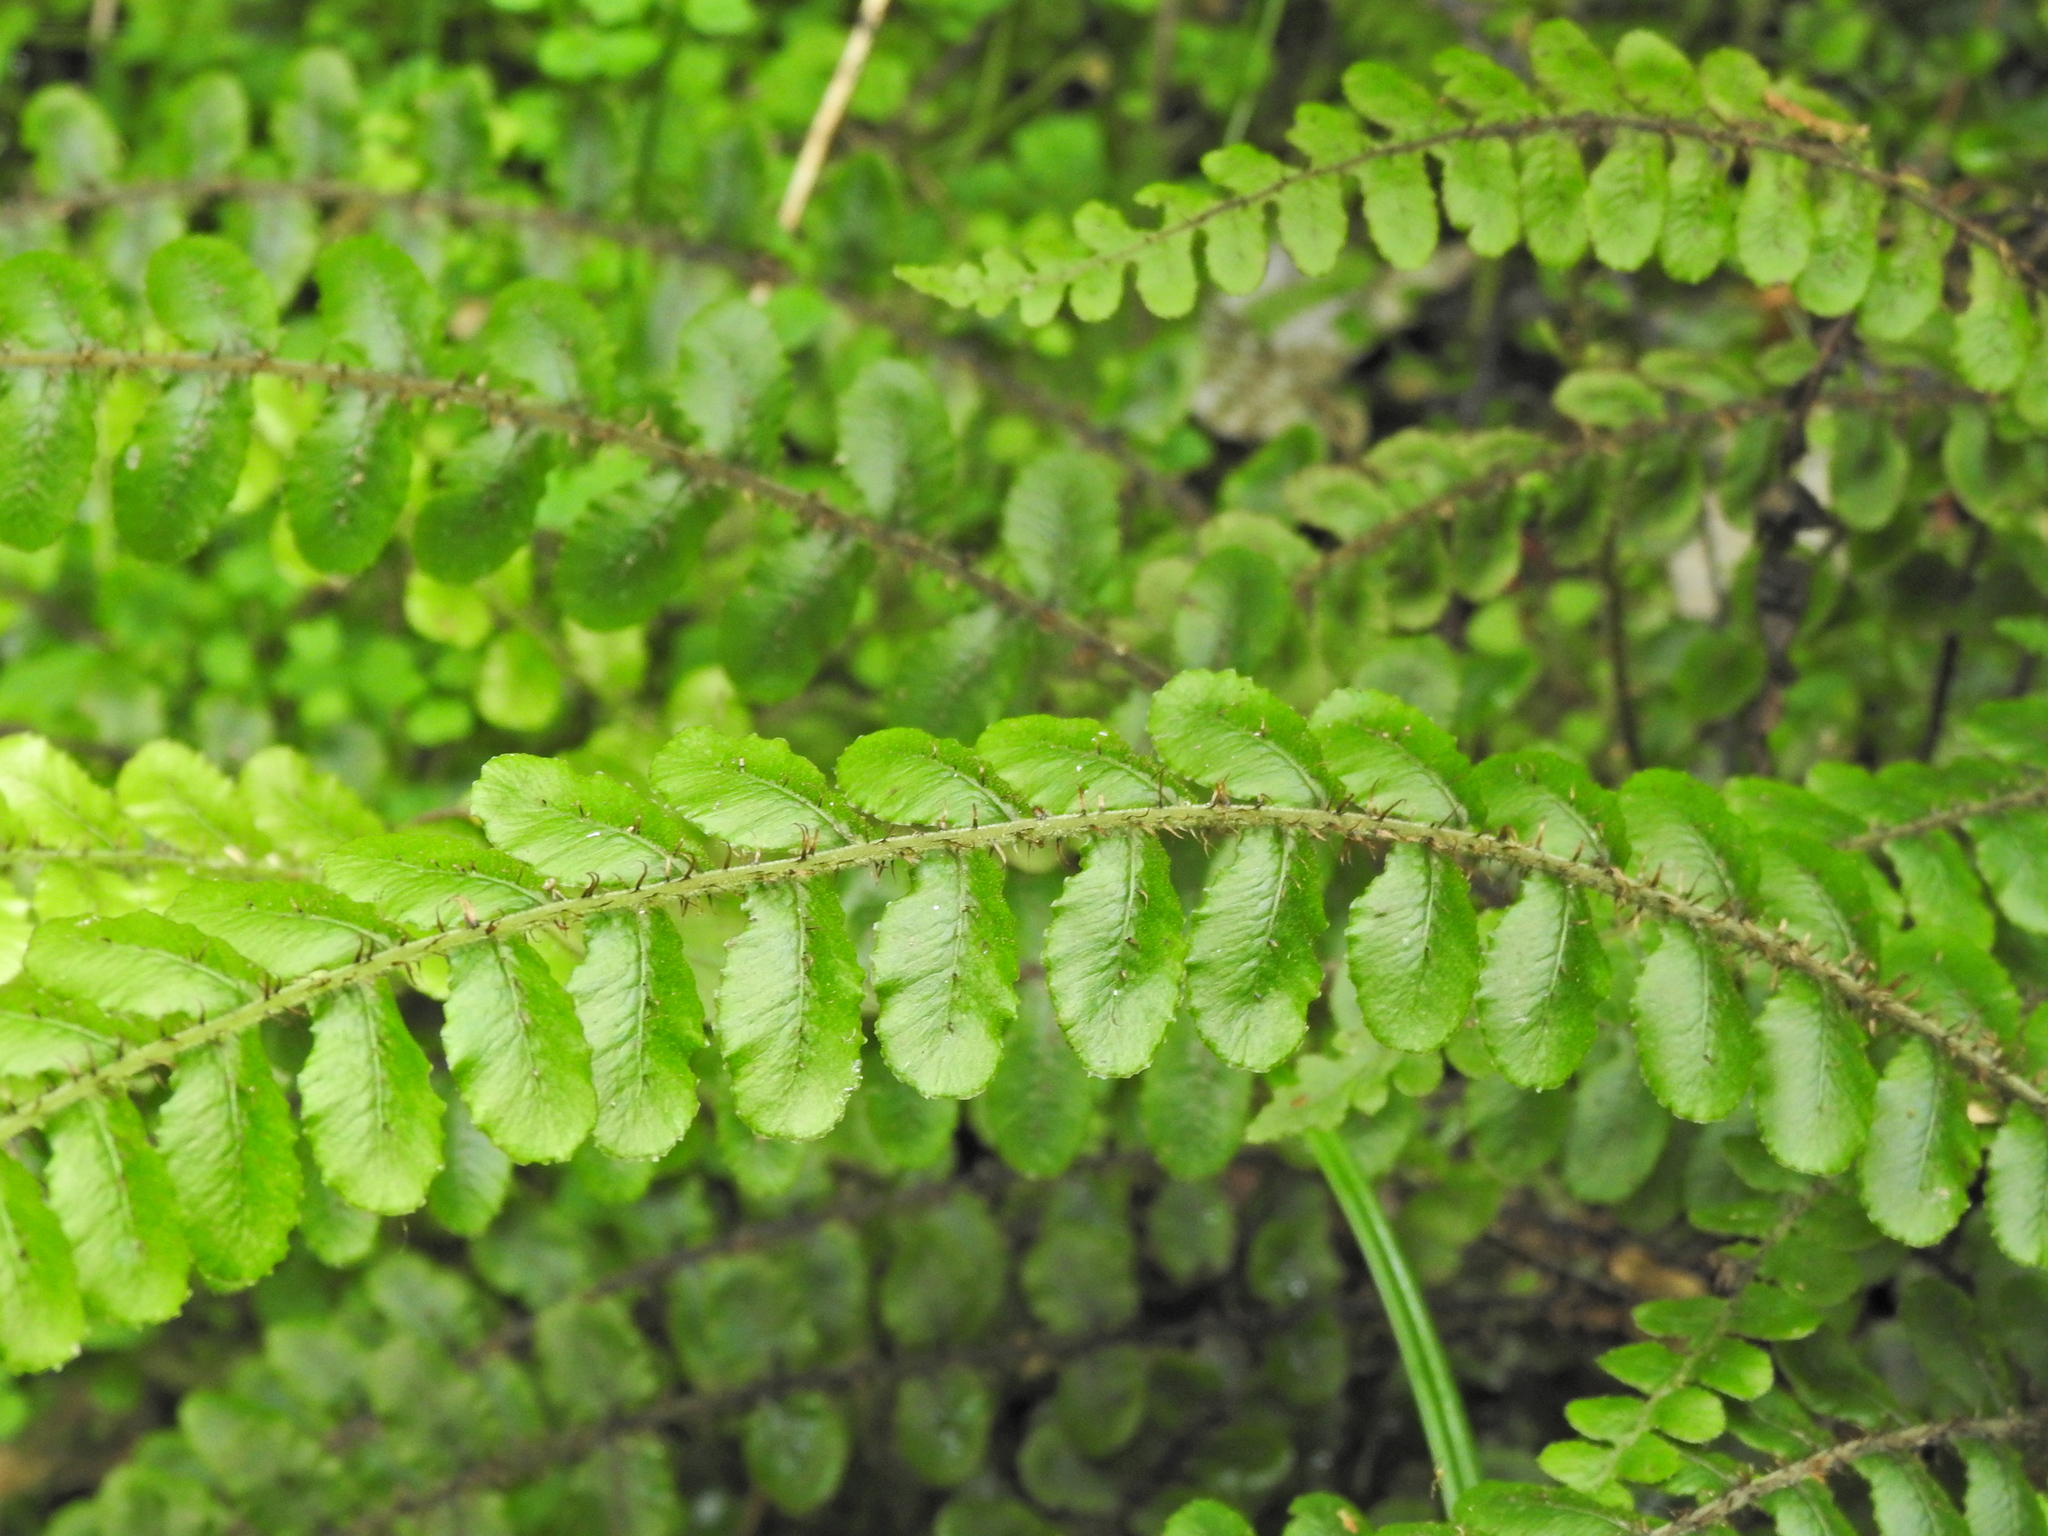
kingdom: Plantae
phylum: Tracheophyta
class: Polypodiopsida
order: Polypodiales
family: Blechnaceae
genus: Cranfillia
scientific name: Cranfillia fluviatilis
